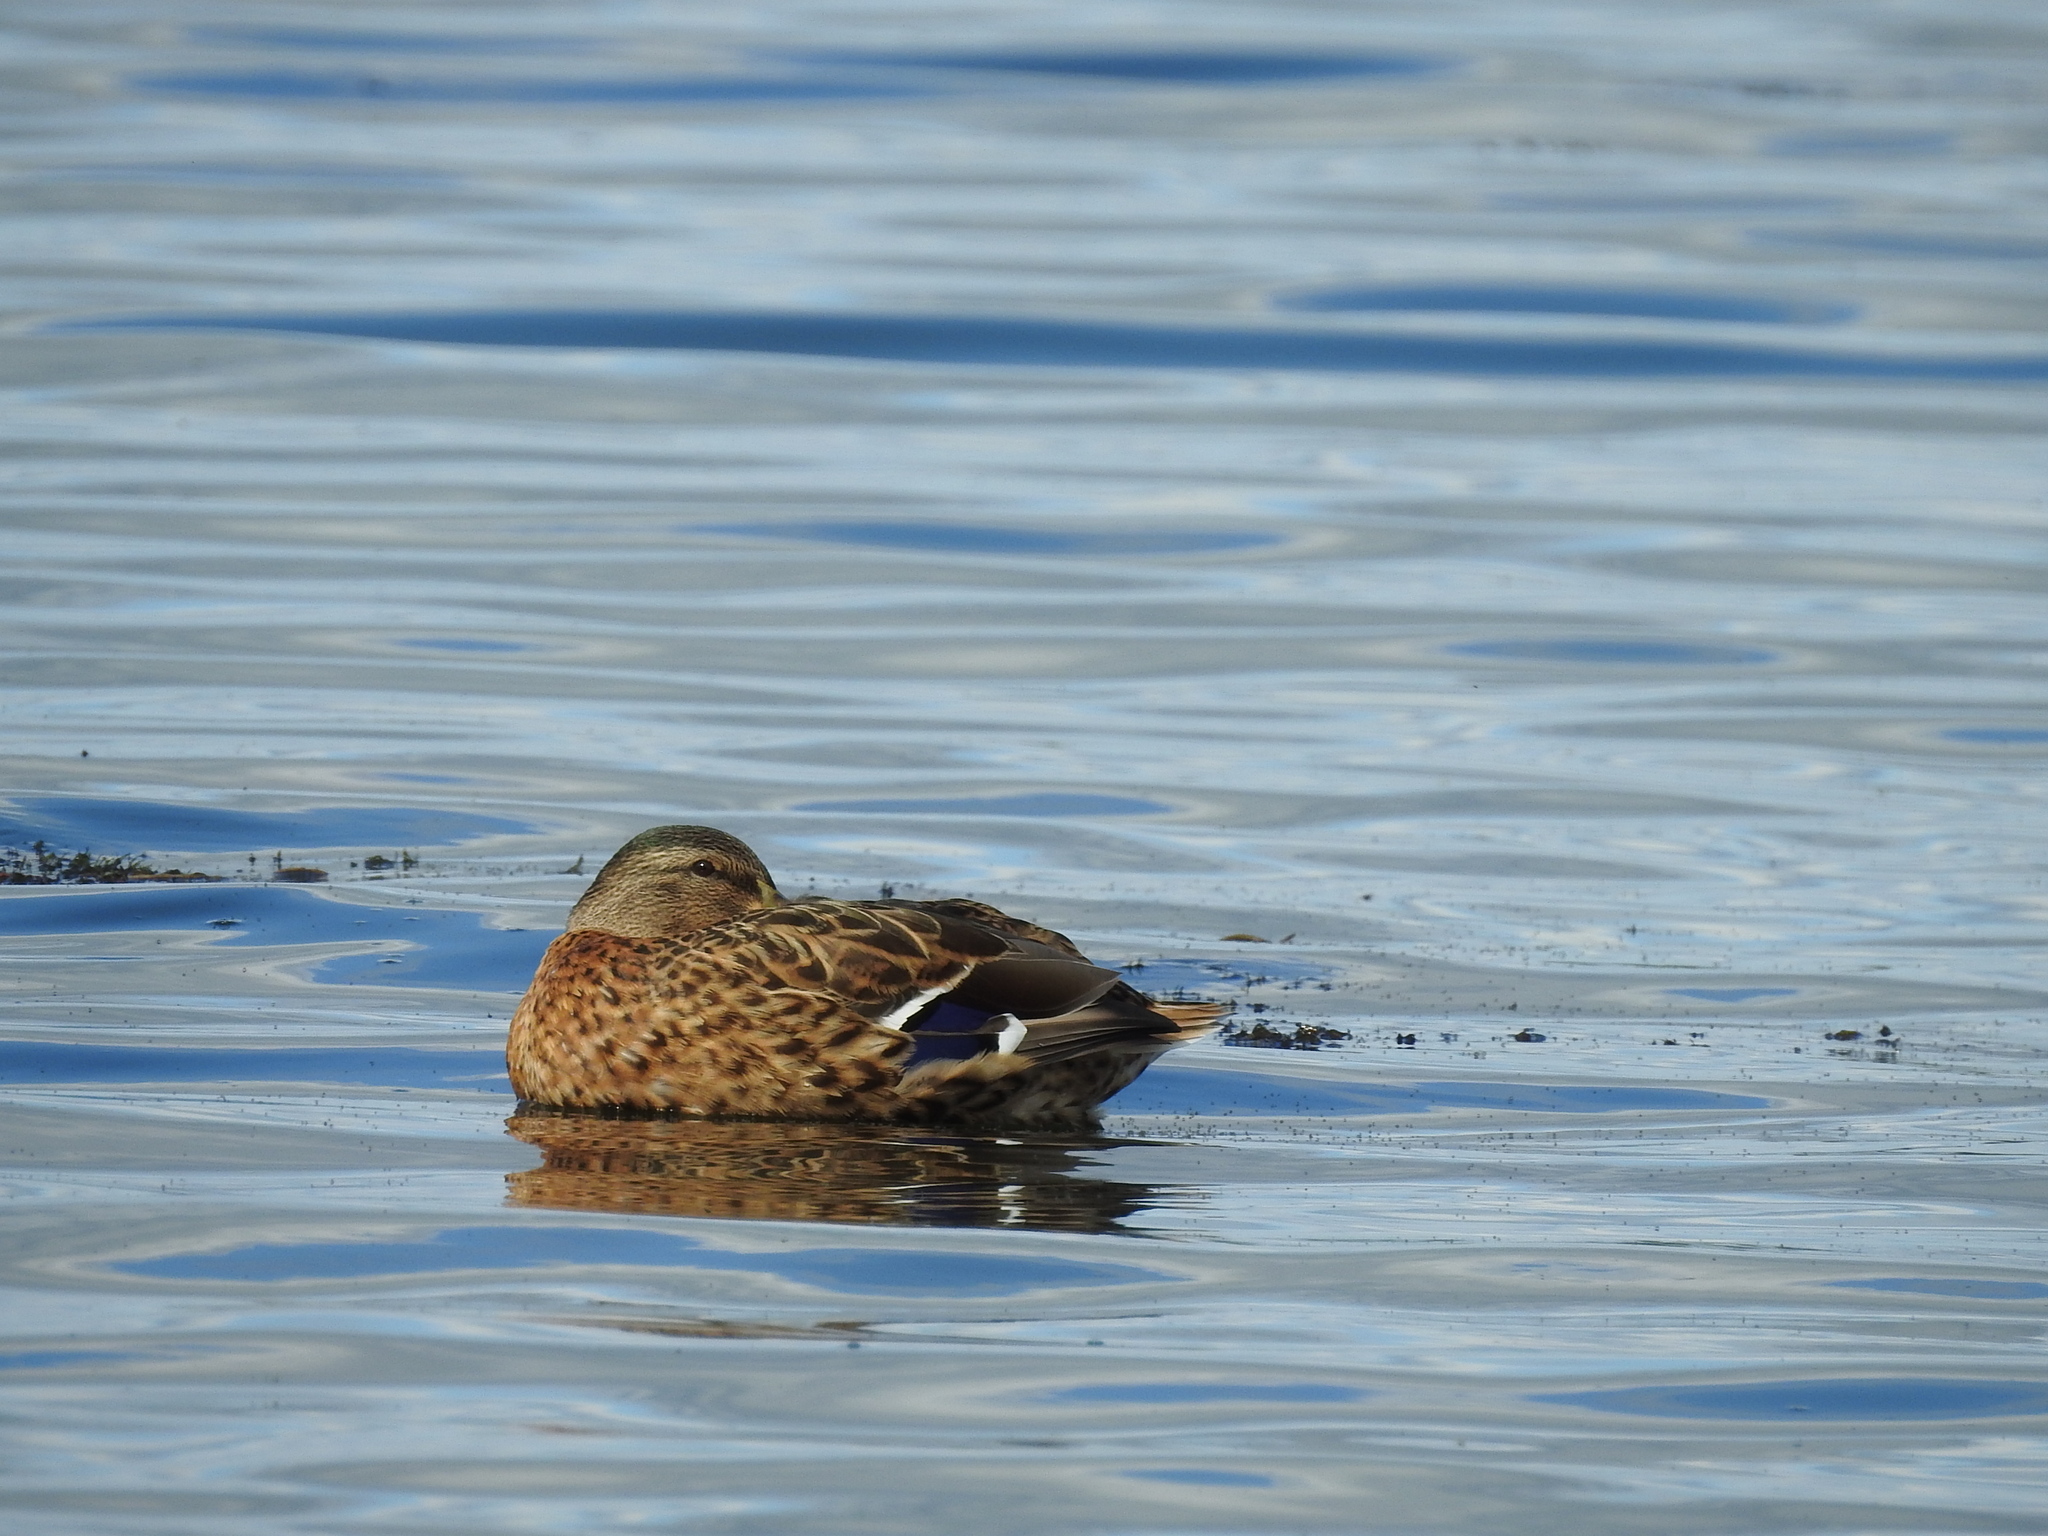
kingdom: Animalia
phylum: Chordata
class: Aves
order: Anseriformes
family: Anatidae
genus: Anas
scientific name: Anas platyrhynchos
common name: Mallard
